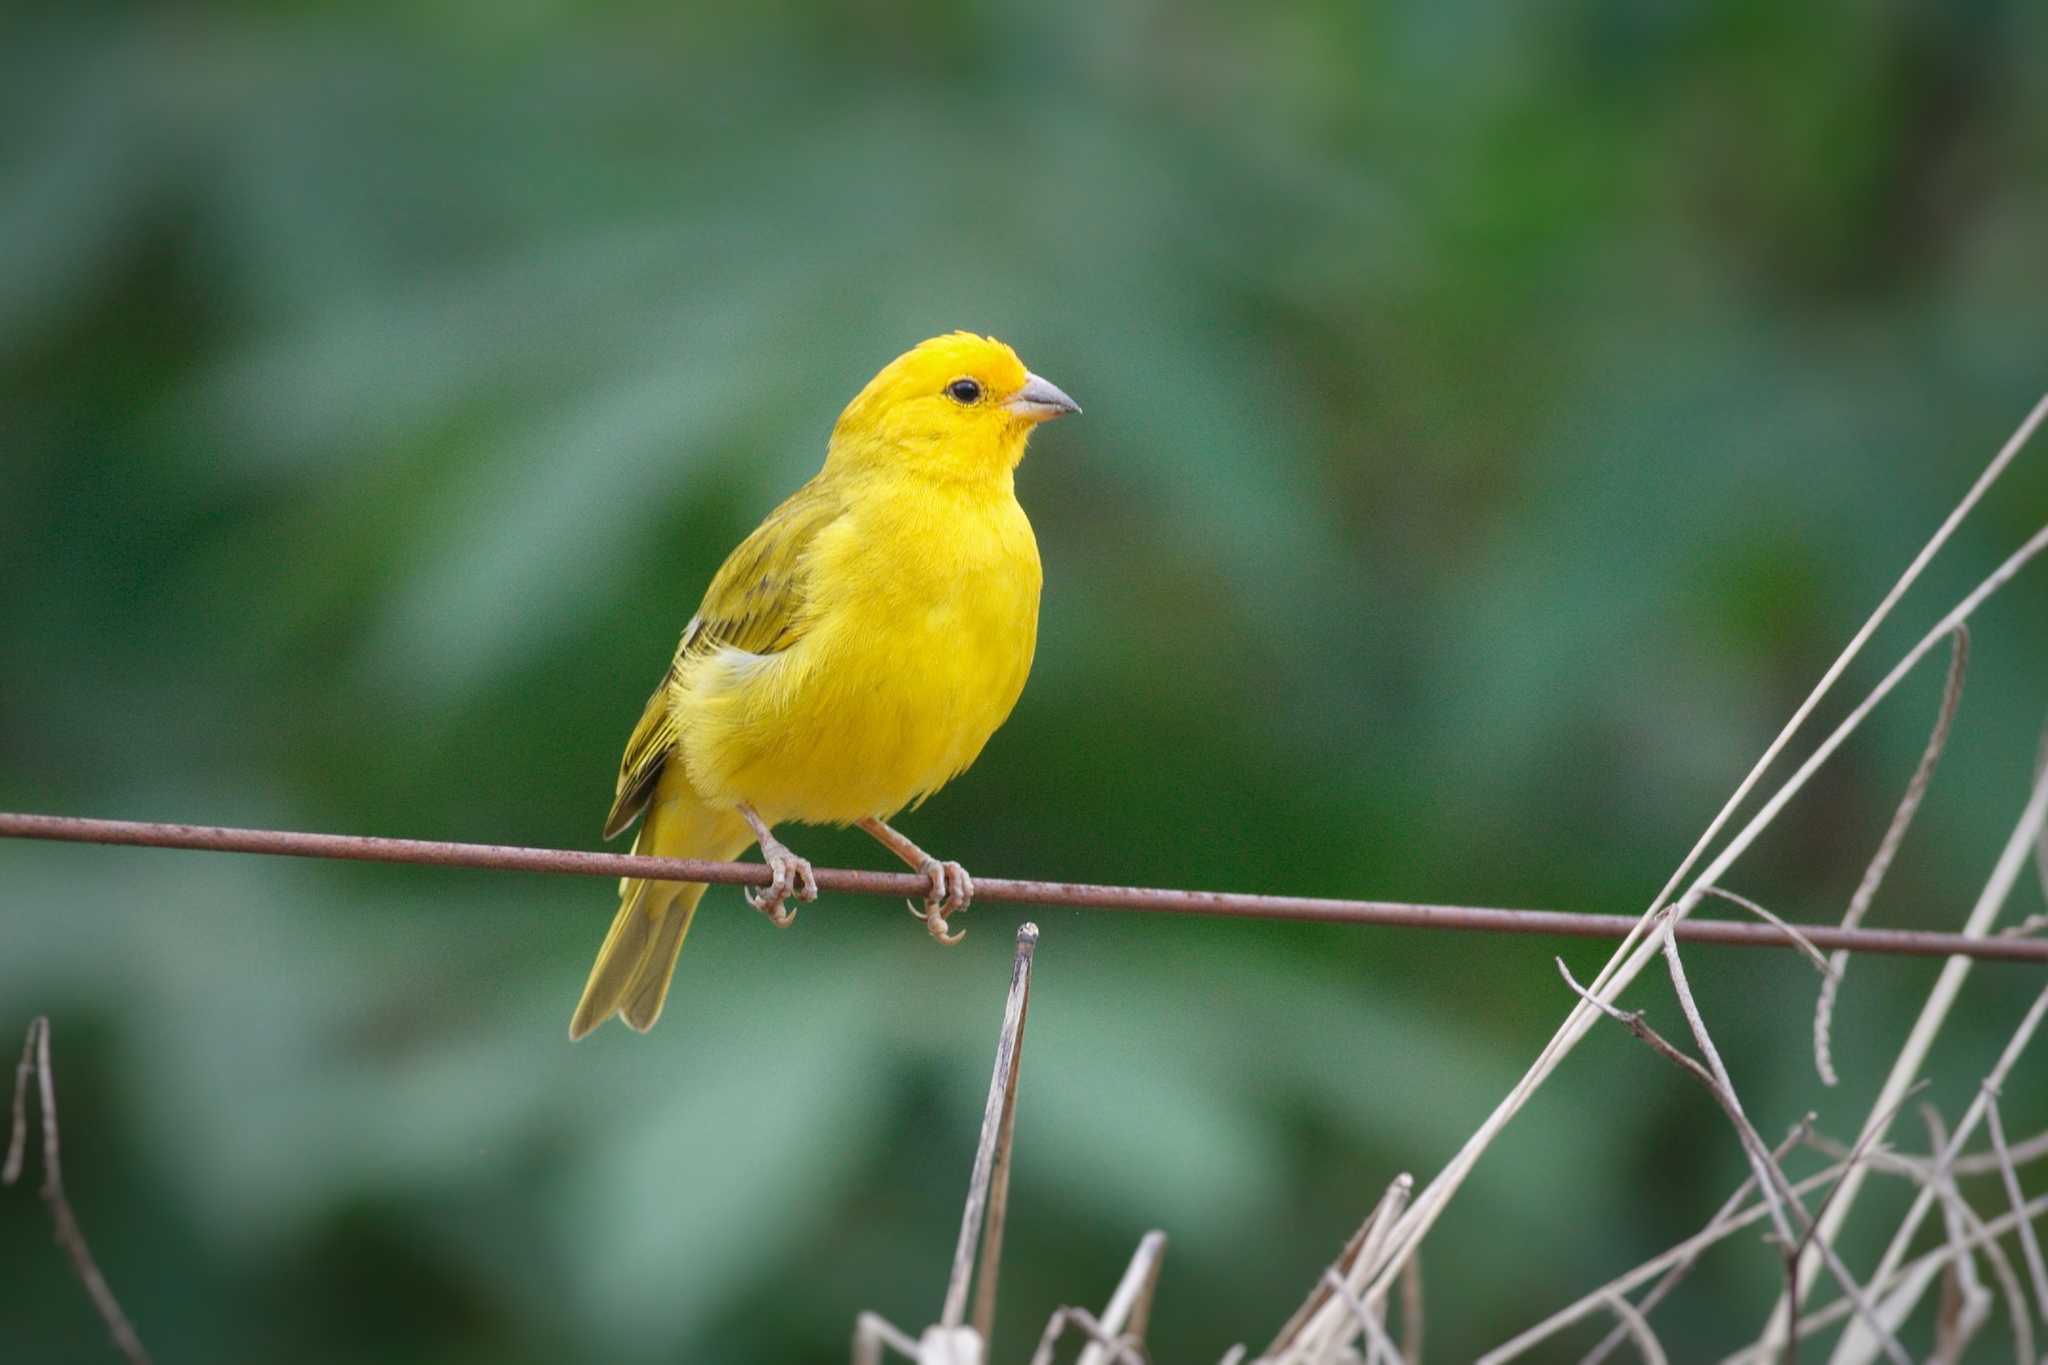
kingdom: Animalia
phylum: Chordata
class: Aves
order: Passeriformes
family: Thraupidae
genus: Sicalis
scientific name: Sicalis flaveola
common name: Saffron finch
